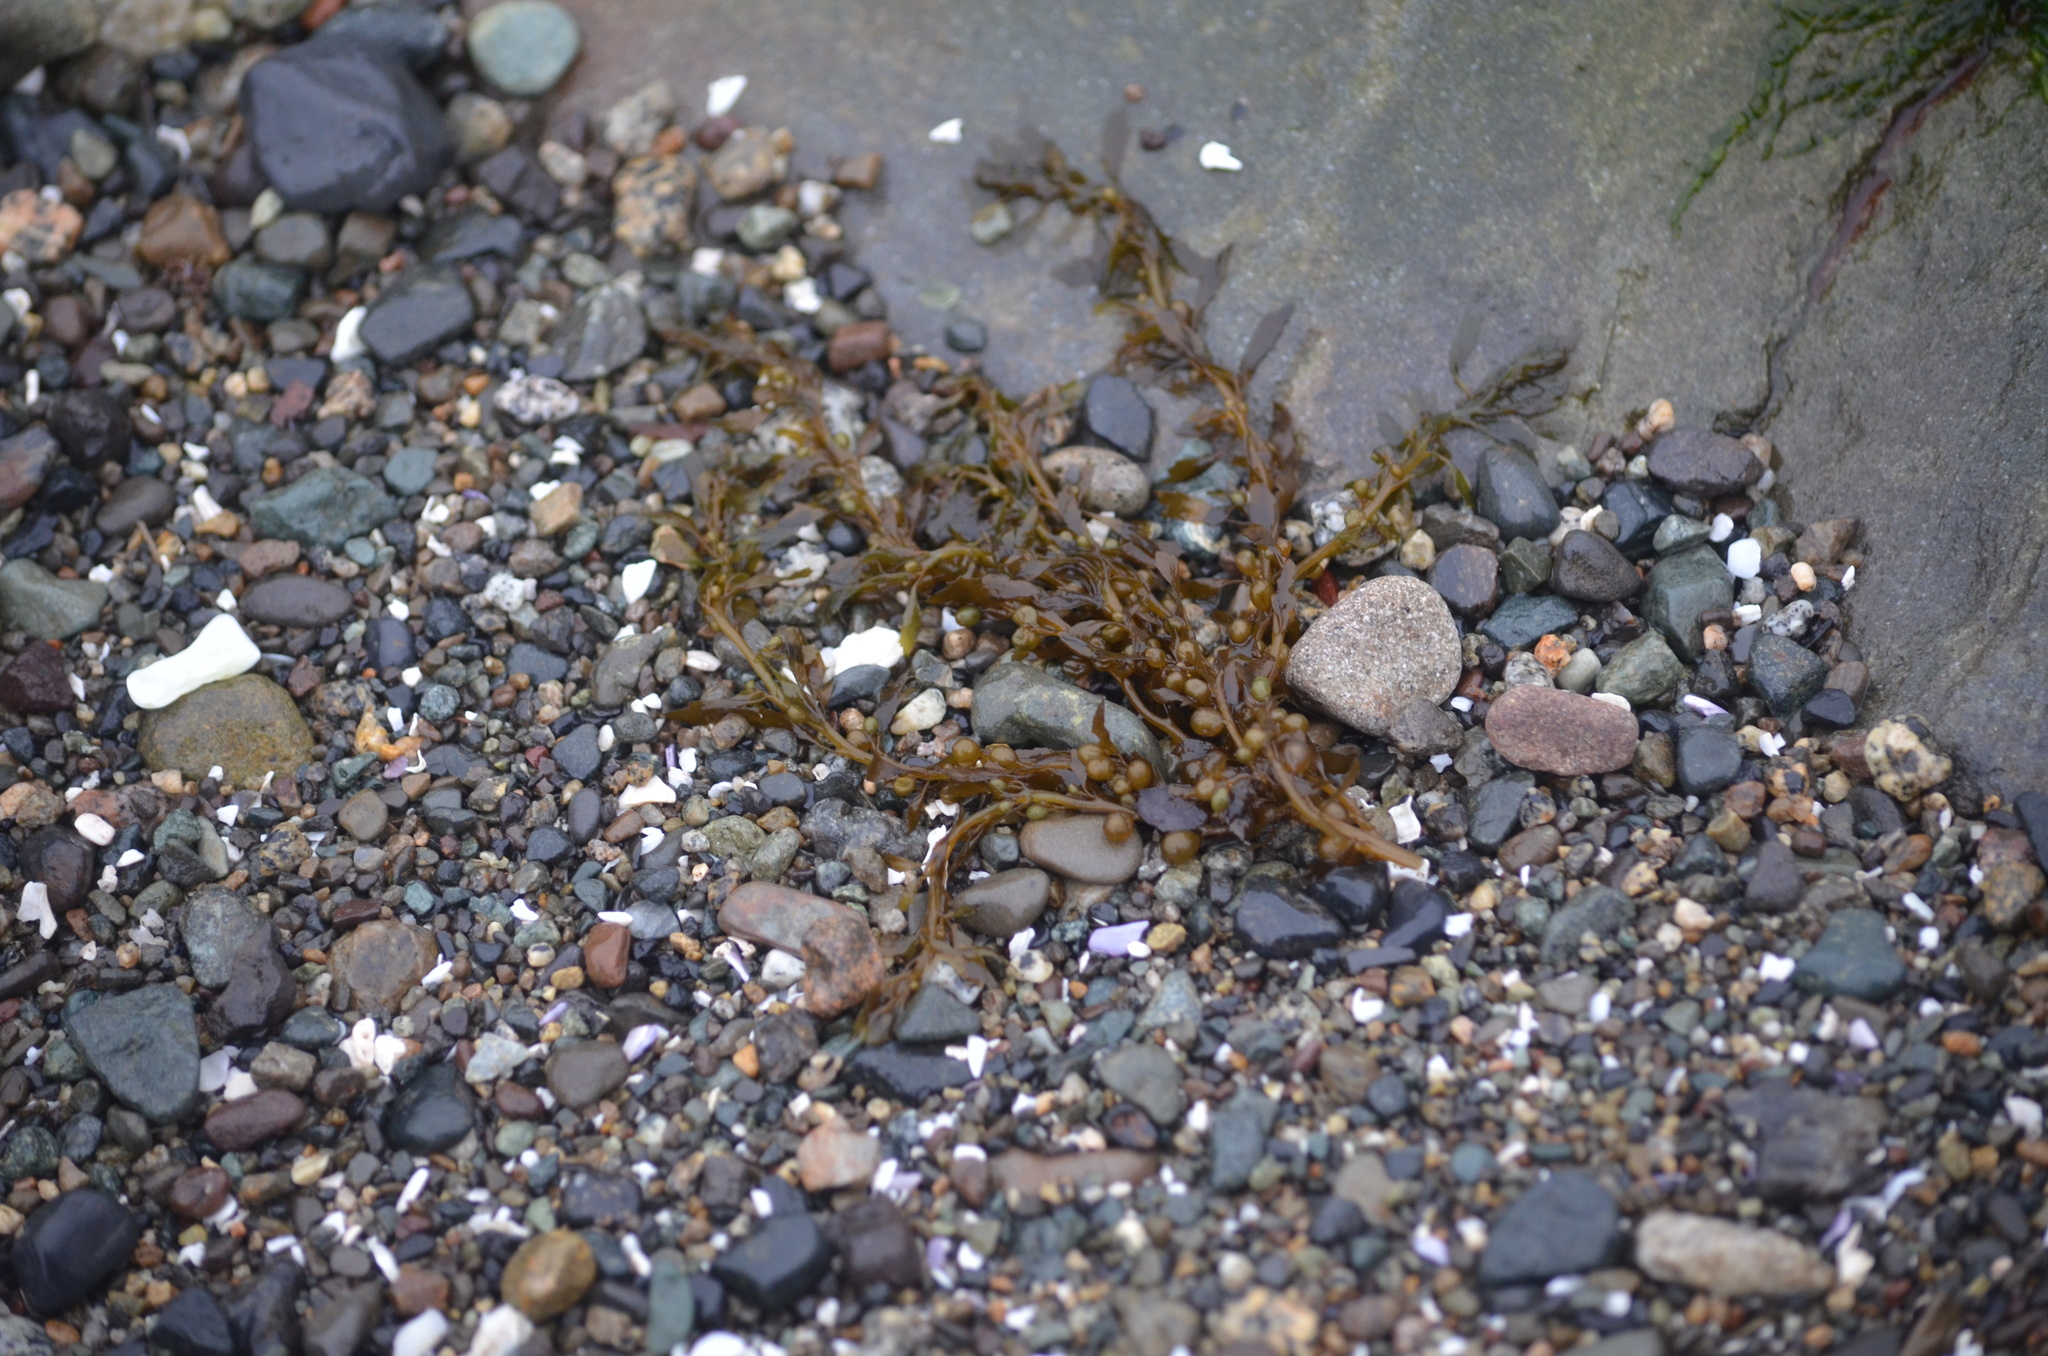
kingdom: Chromista
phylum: Ochrophyta
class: Phaeophyceae
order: Fucales
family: Sargassaceae
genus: Sargassum
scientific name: Sargassum muticum
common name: Japweed
